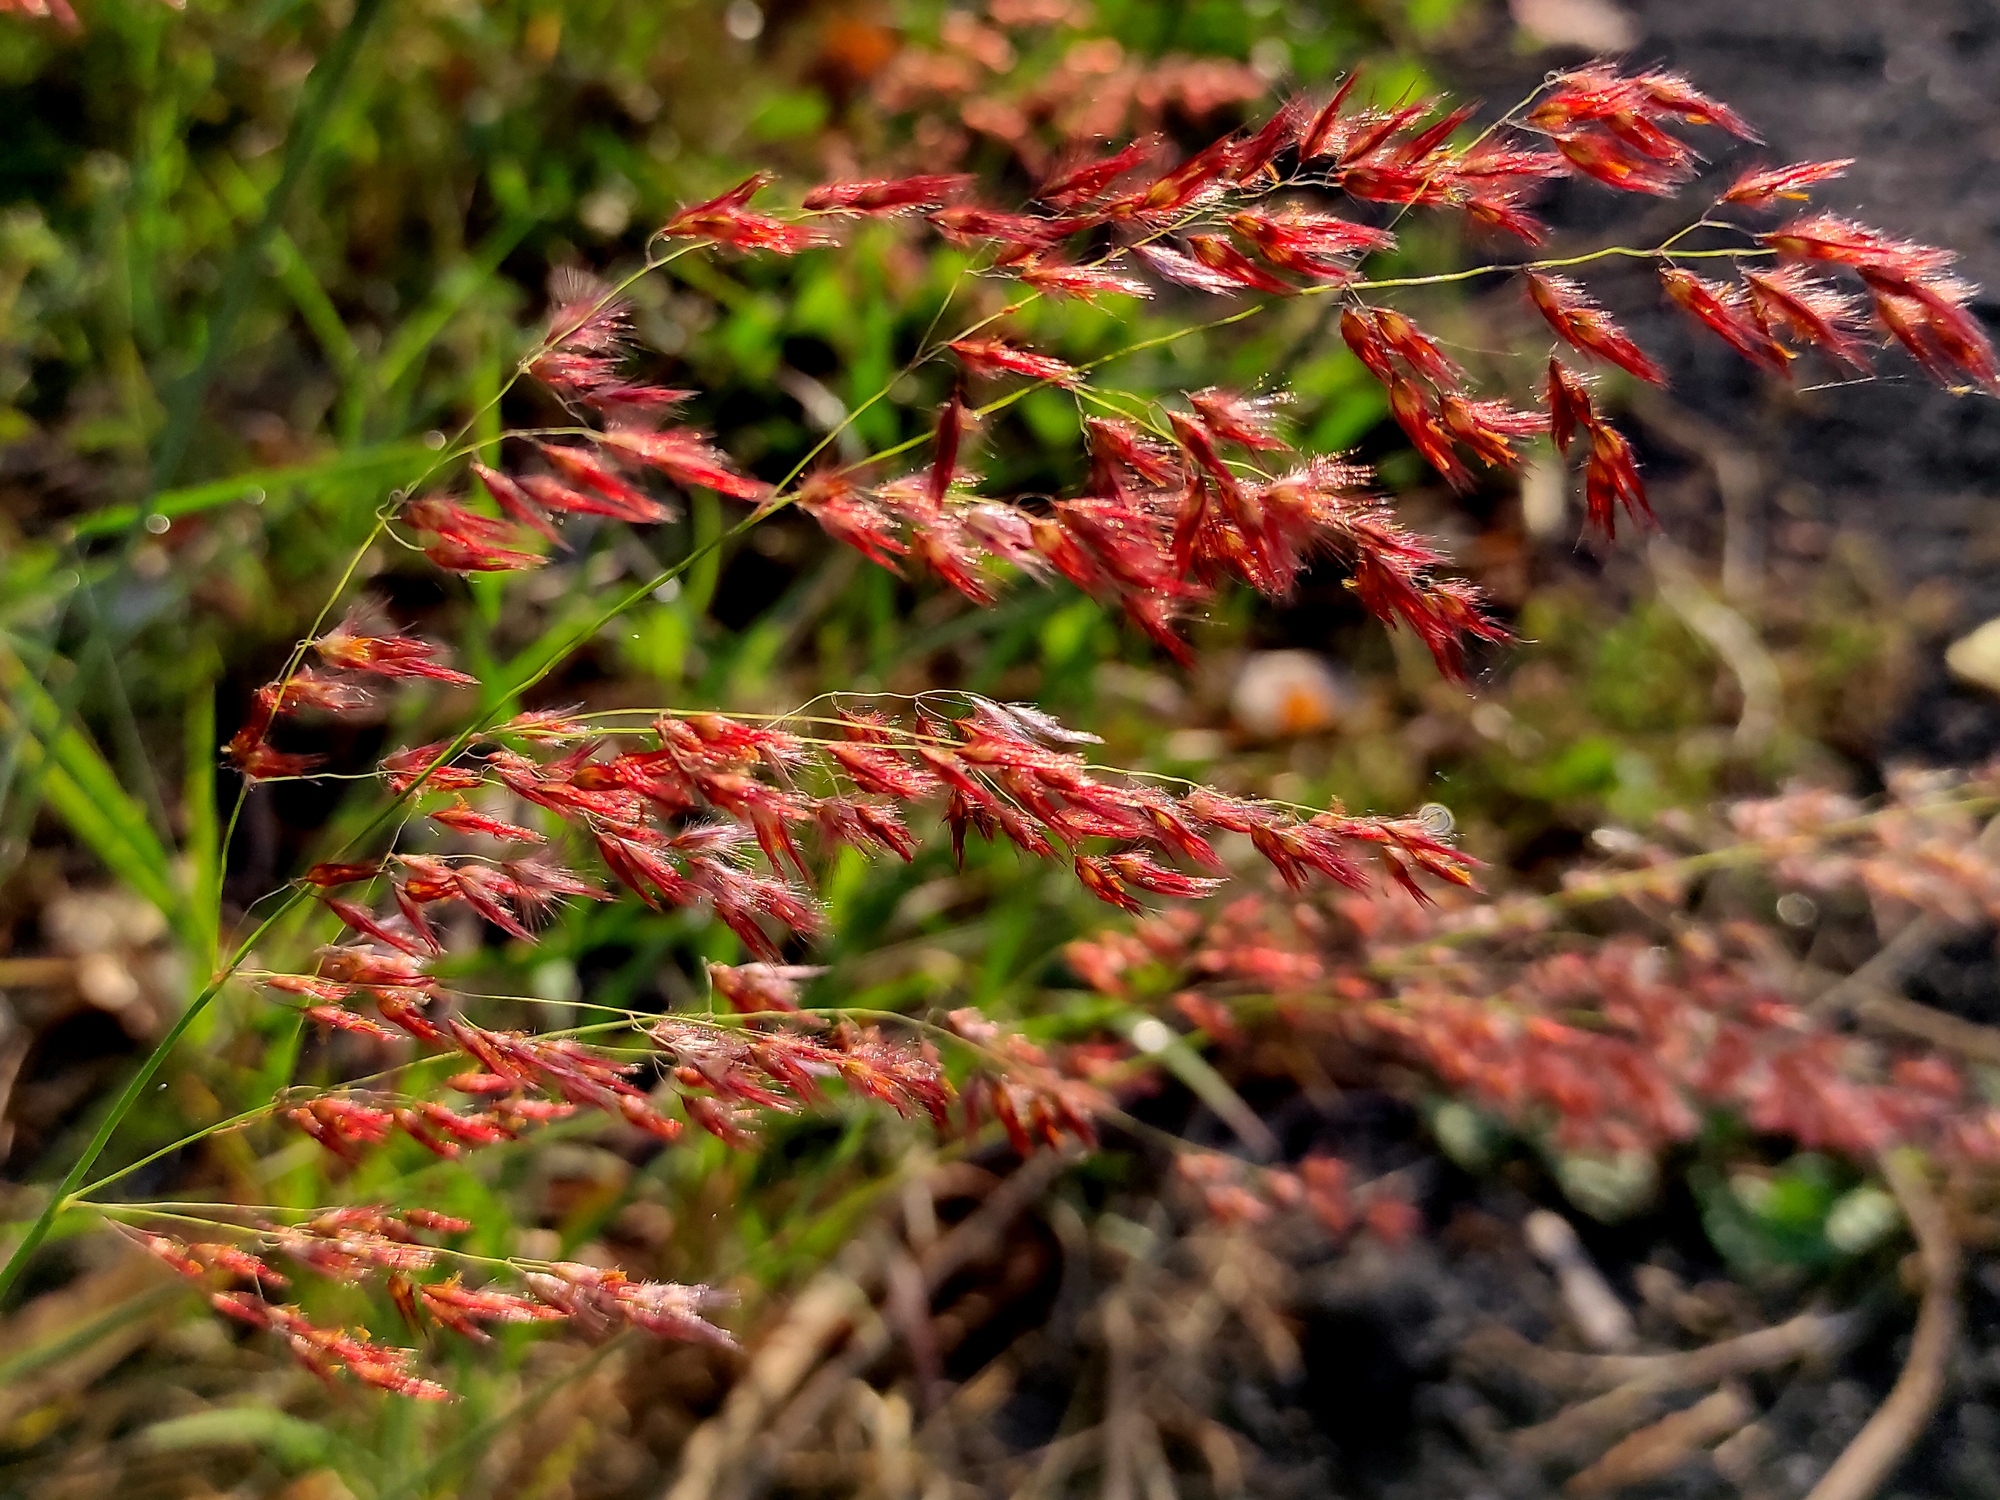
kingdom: Plantae
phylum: Tracheophyta
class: Liliopsida
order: Poales
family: Poaceae
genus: Melinis
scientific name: Melinis repens
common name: Rose natal grass
